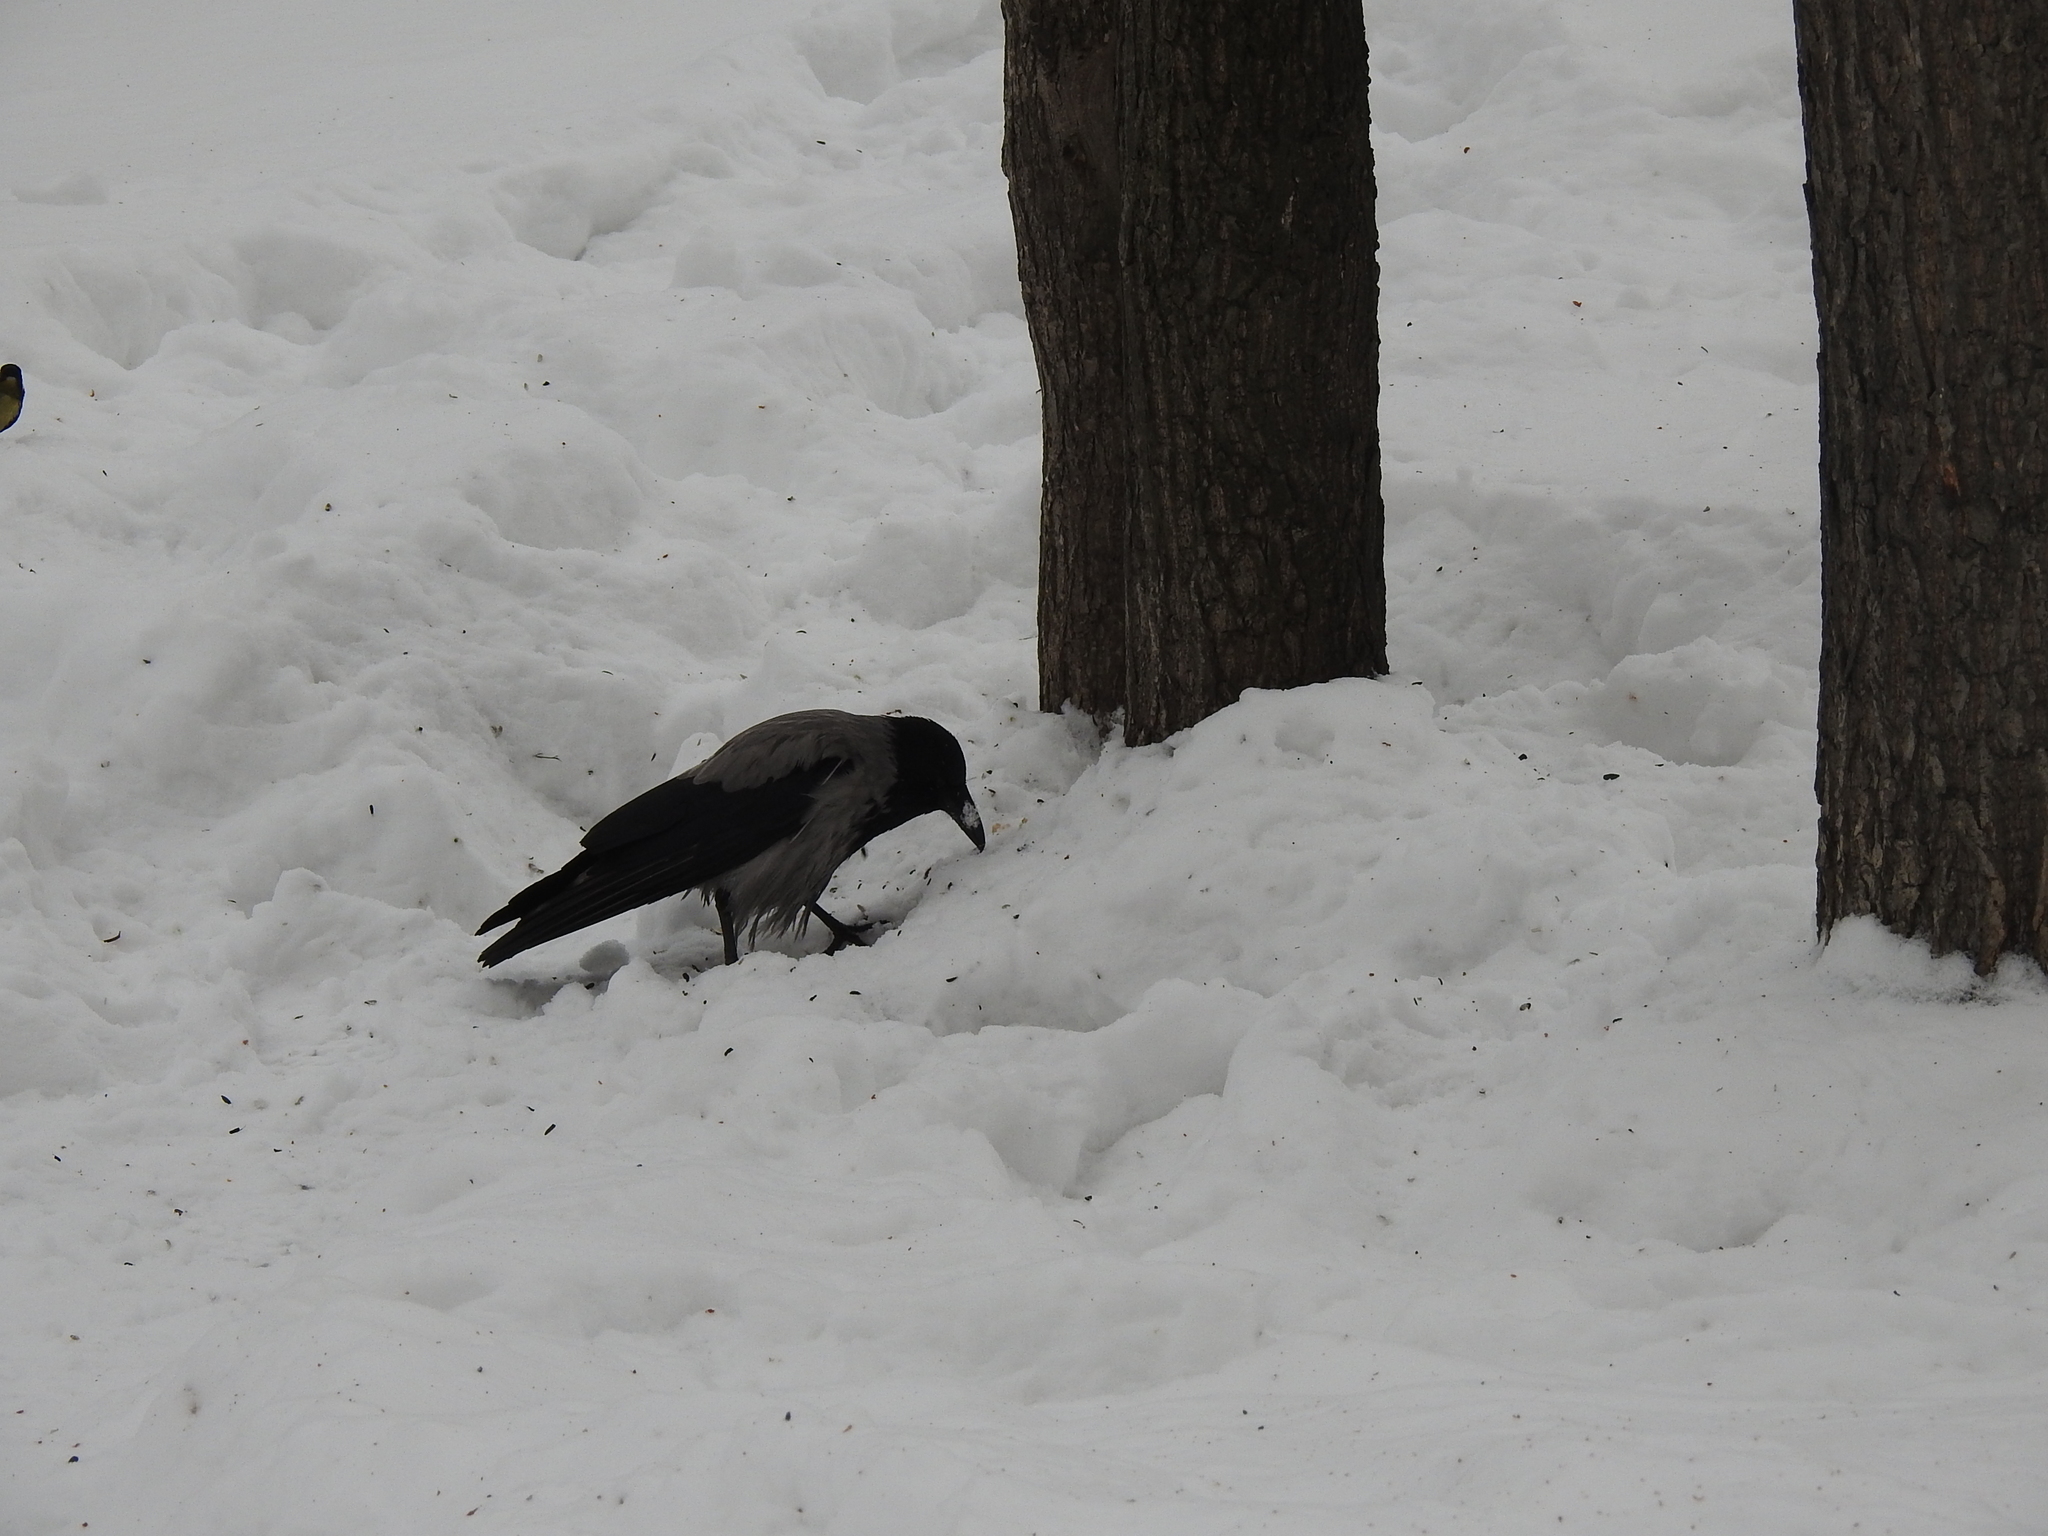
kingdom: Animalia
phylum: Chordata
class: Aves
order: Passeriformes
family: Corvidae
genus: Corvus
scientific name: Corvus cornix
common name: Hooded crow
